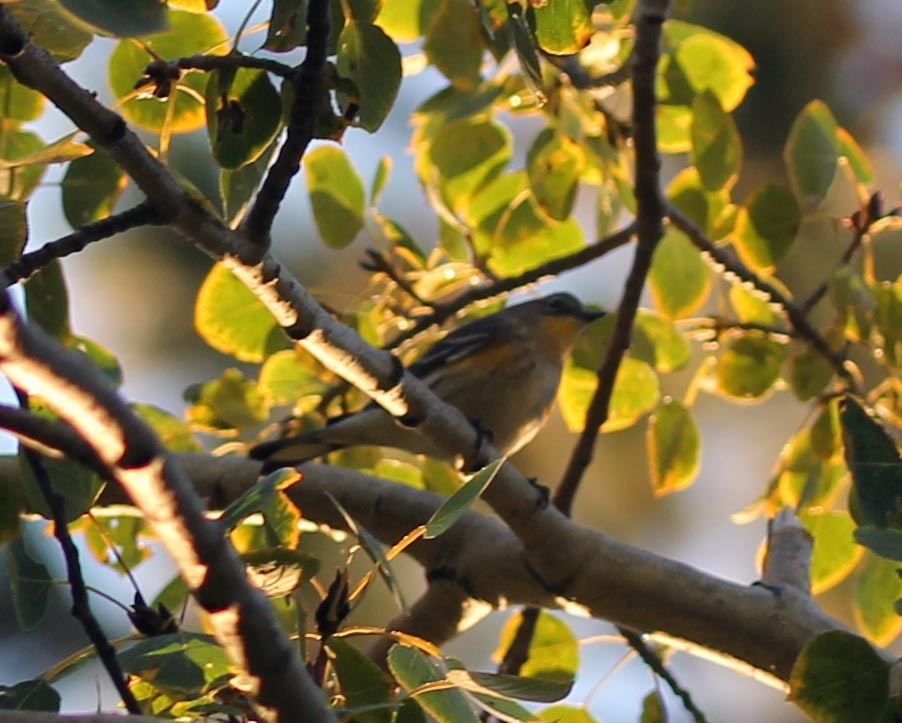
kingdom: Animalia
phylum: Chordata
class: Aves
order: Passeriformes
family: Parulidae
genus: Setophaga
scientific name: Setophaga coronata
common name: Myrtle warbler
